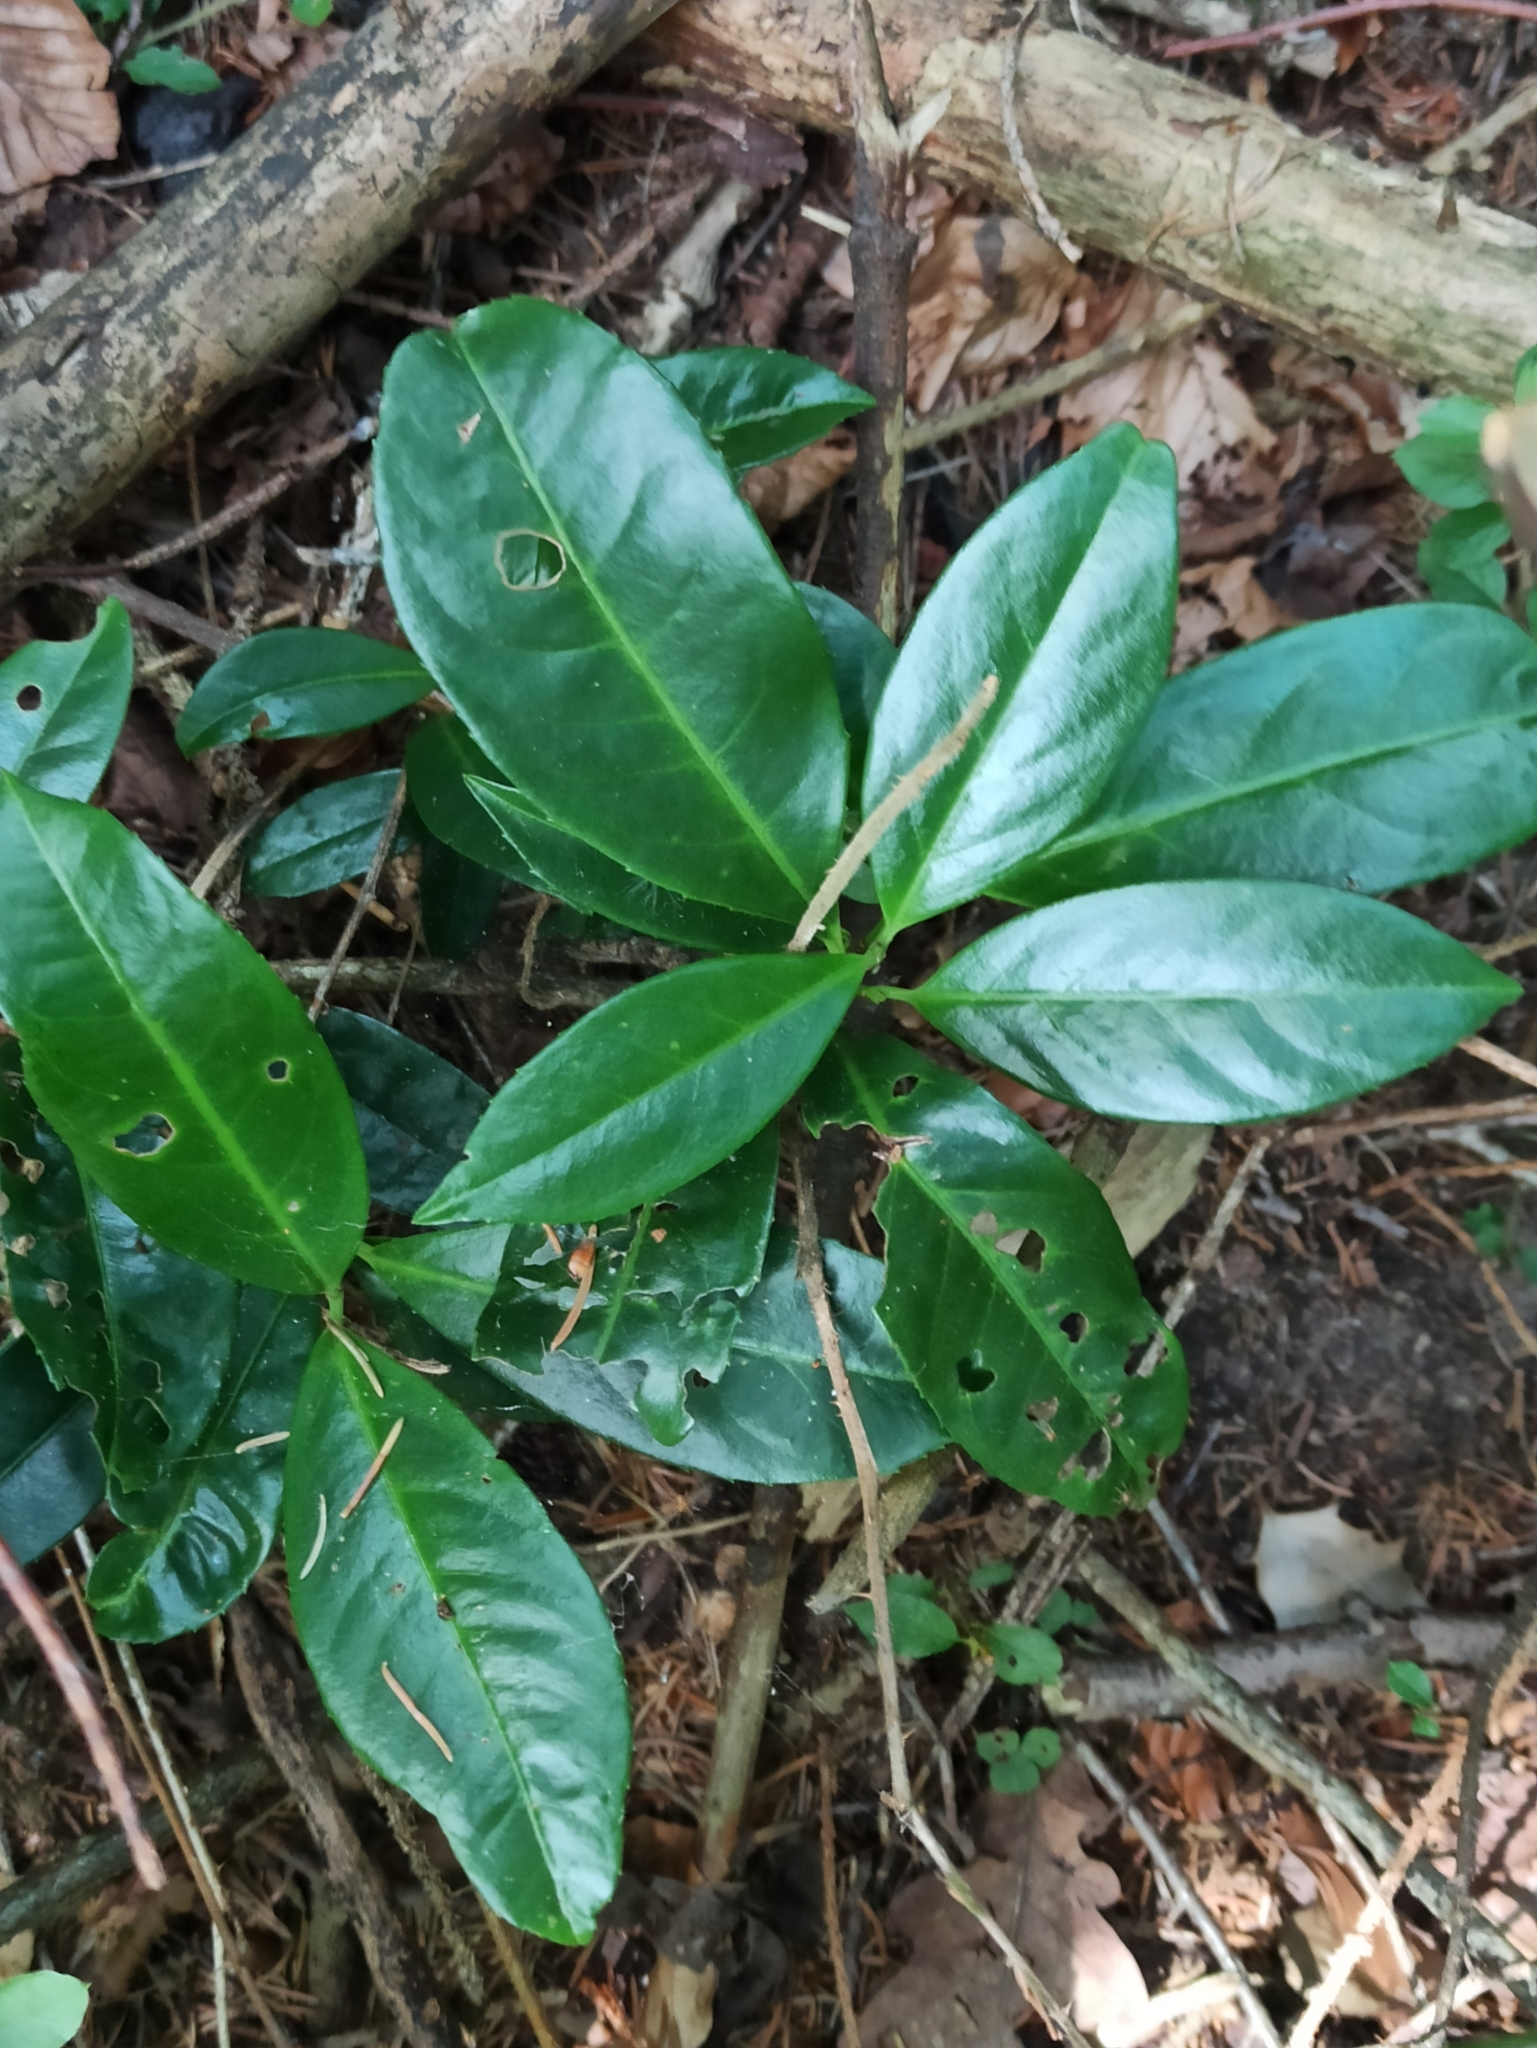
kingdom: Plantae
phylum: Tracheophyta
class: Magnoliopsida
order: Rosales
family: Rosaceae
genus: Prunus
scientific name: Prunus laurocerasus
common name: Cherry laurel
